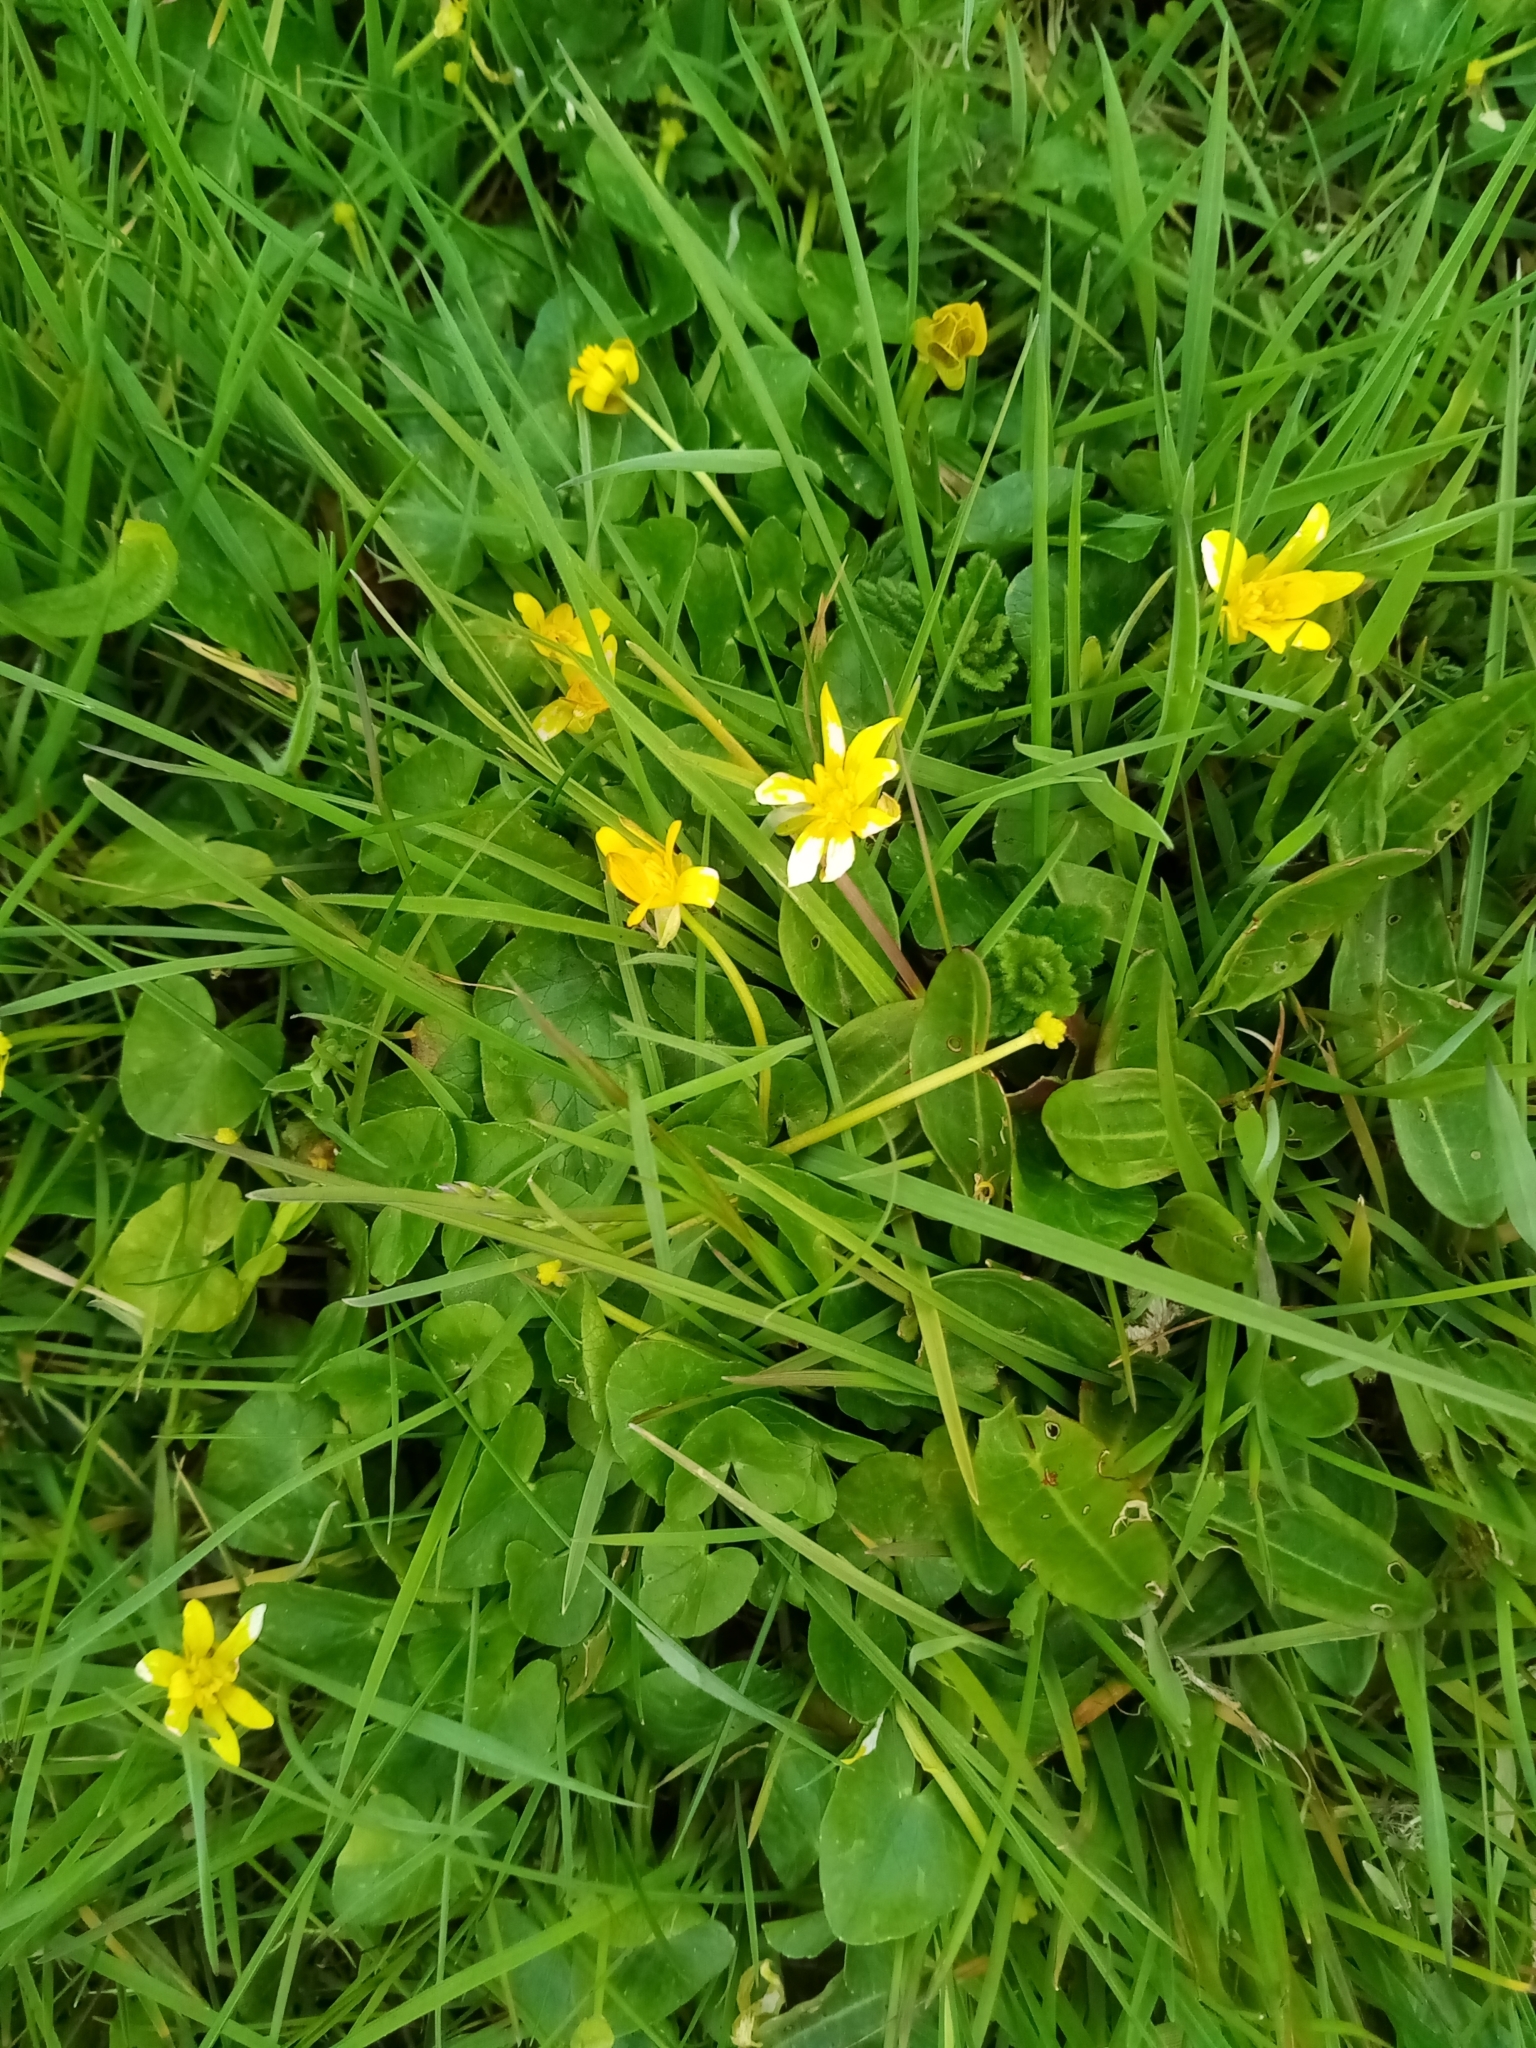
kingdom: Plantae
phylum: Tracheophyta
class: Magnoliopsida
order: Ranunculales
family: Ranunculaceae
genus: Ficaria
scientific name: Ficaria verna
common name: Lesser celandine
